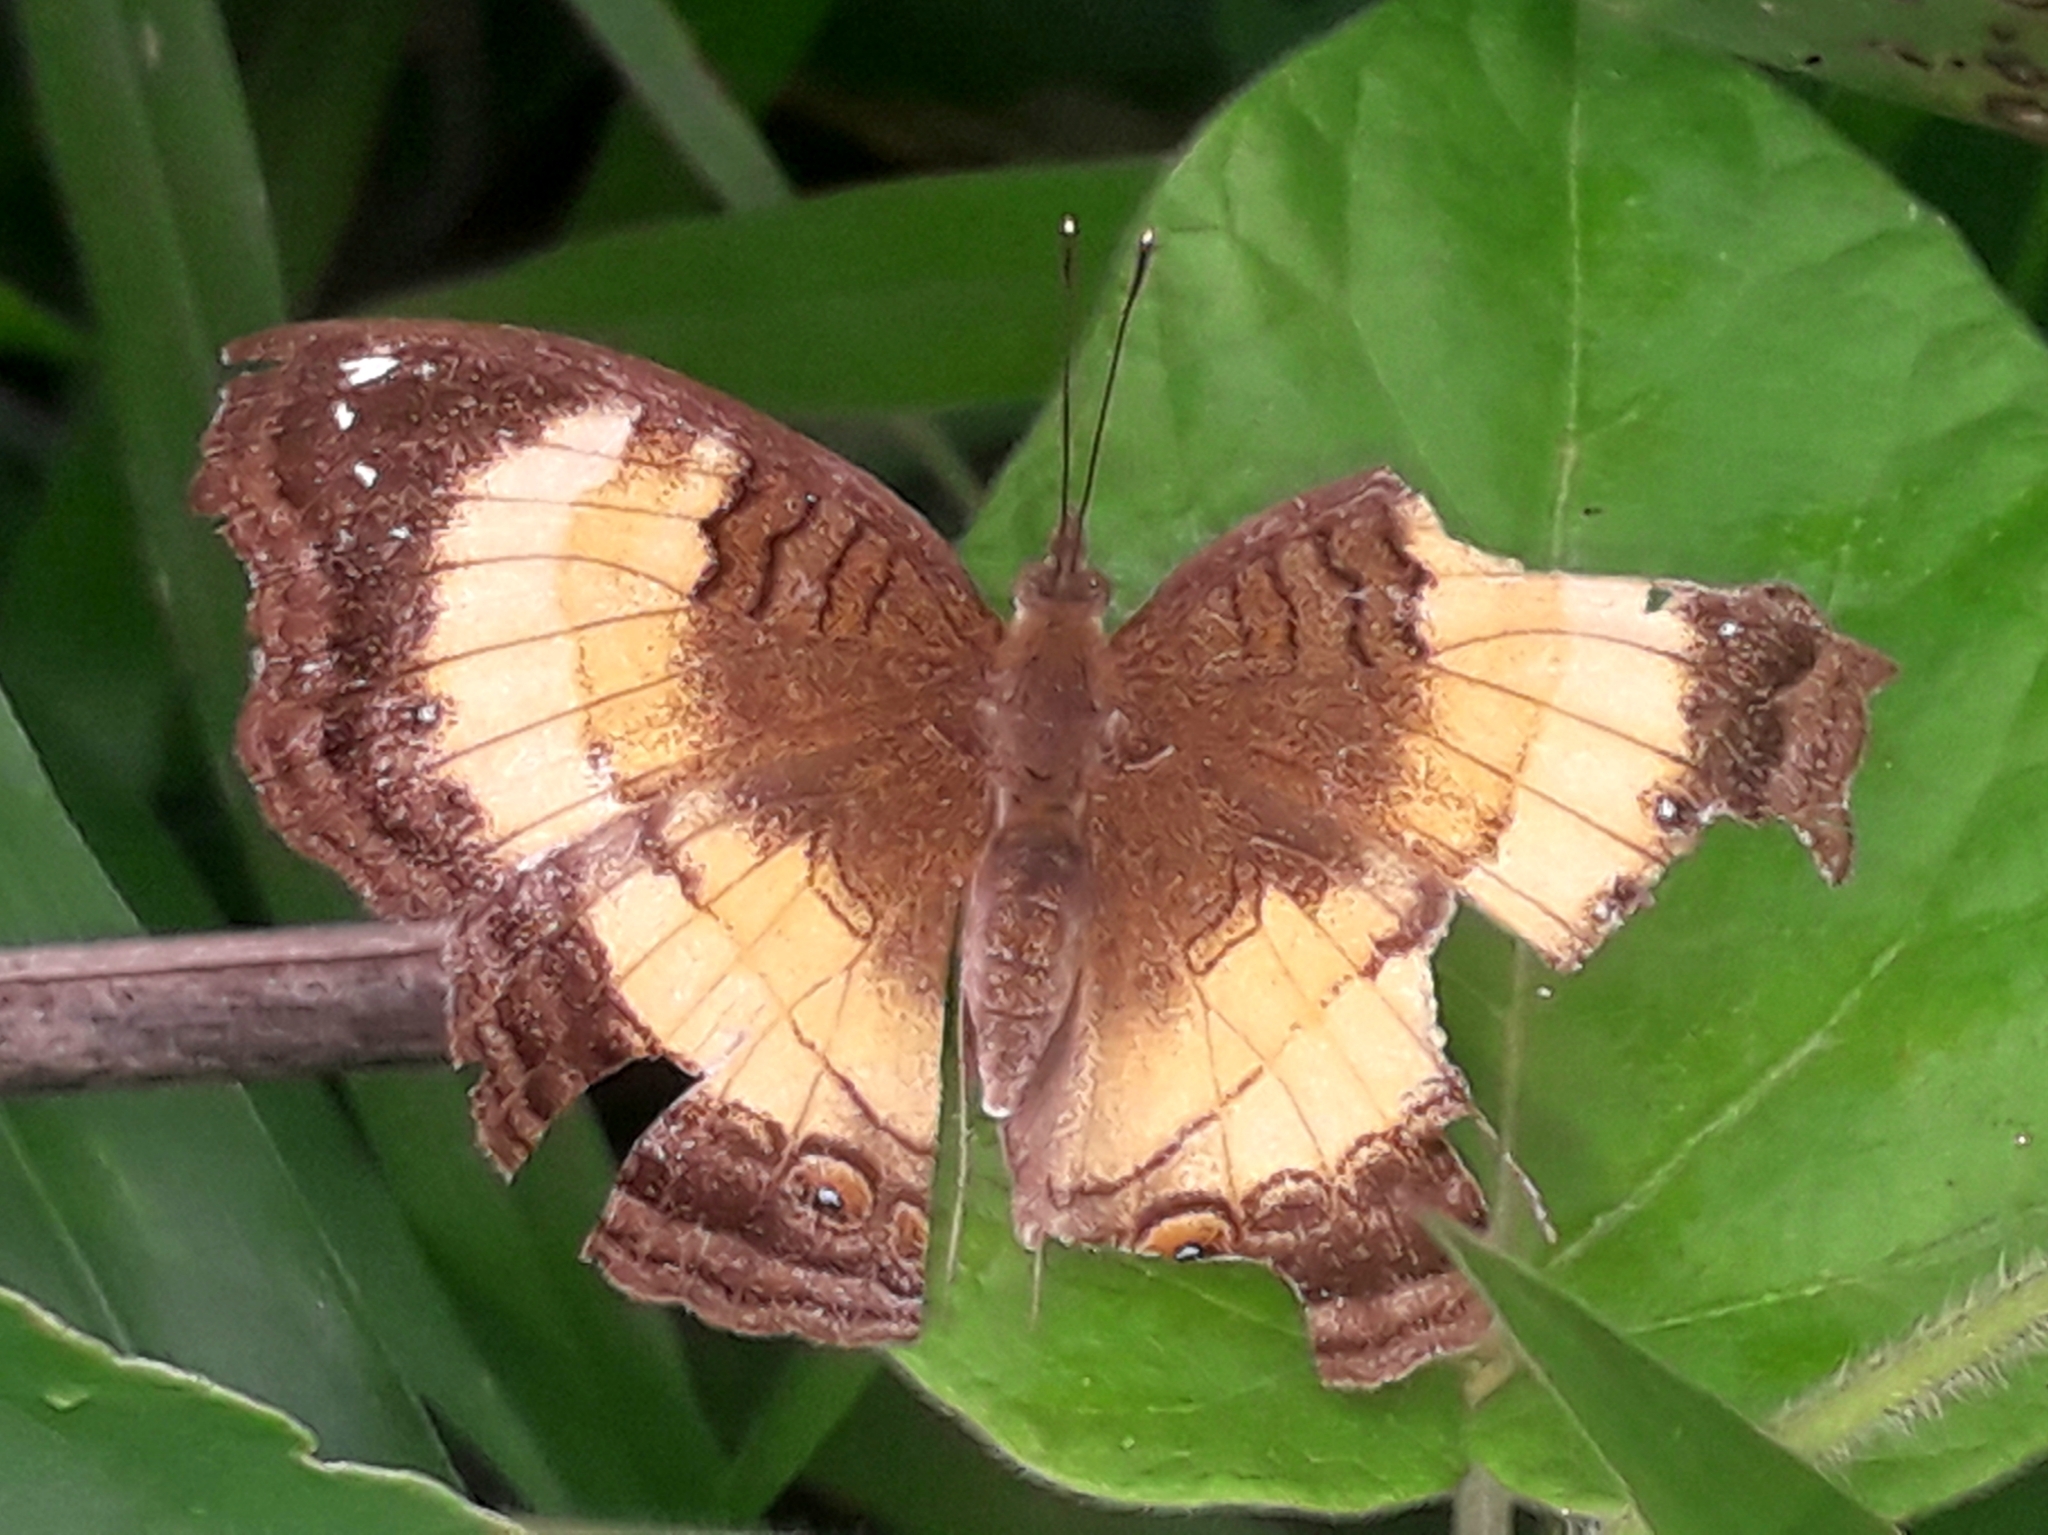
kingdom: Animalia
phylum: Arthropoda
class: Insecta
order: Lepidoptera
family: Nymphalidae
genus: Junonia
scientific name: Junonia terea
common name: Soldier pansy
